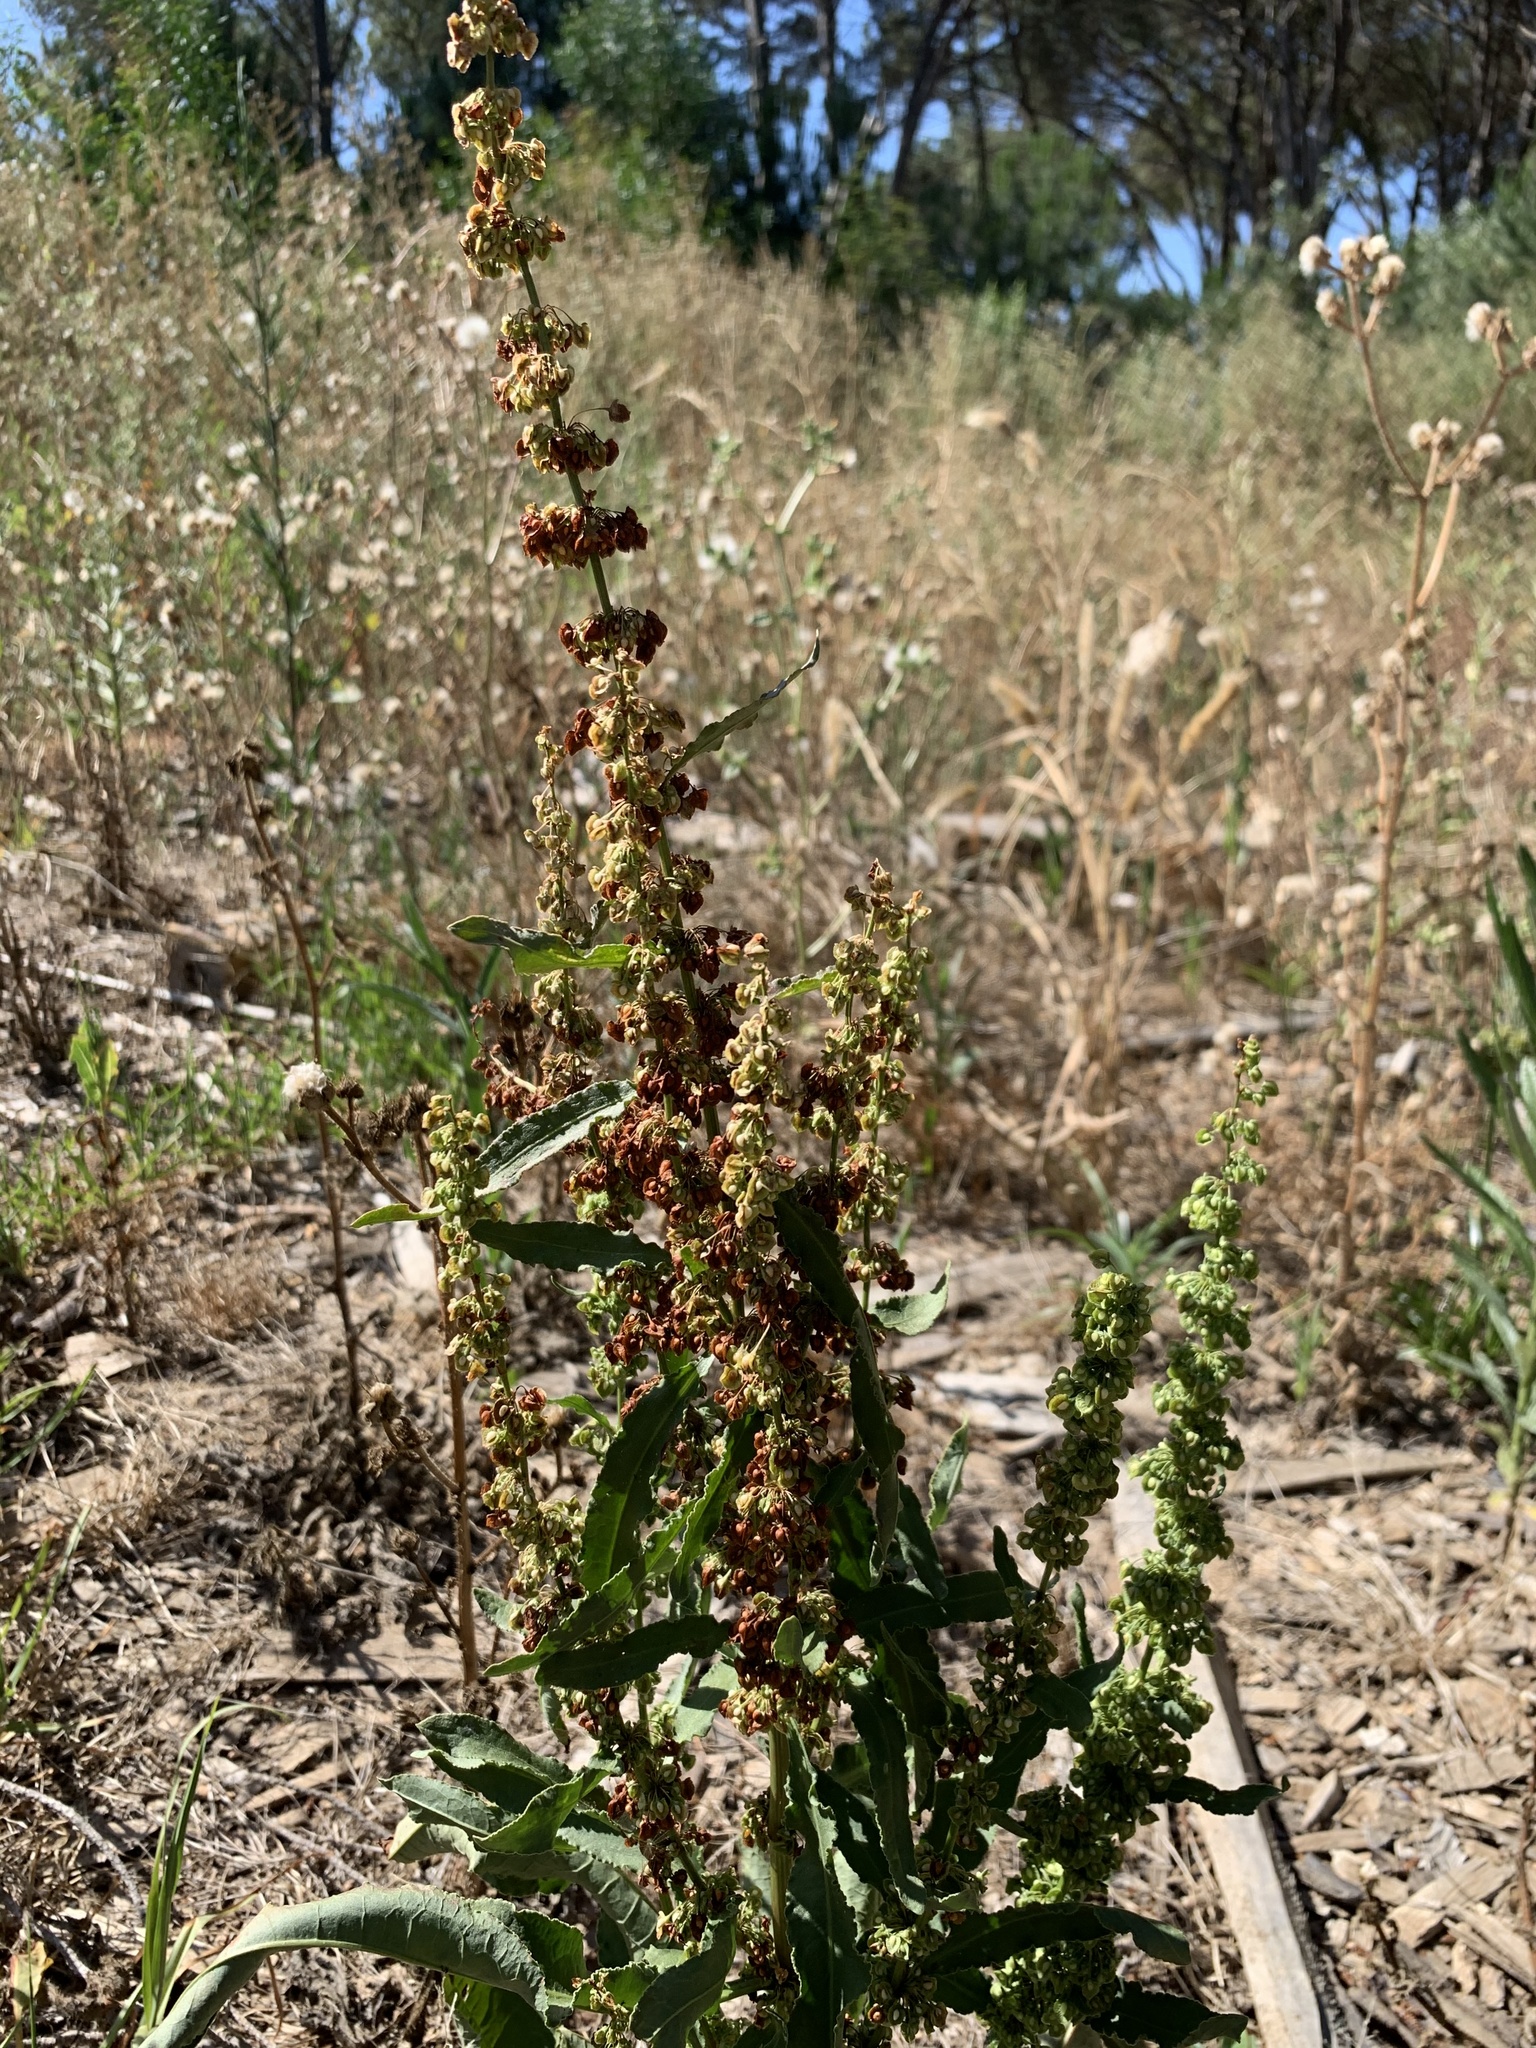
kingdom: Plantae
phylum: Tracheophyta
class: Magnoliopsida
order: Caryophyllales
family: Polygonaceae
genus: Rumex
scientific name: Rumex crispus
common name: Curled dock
